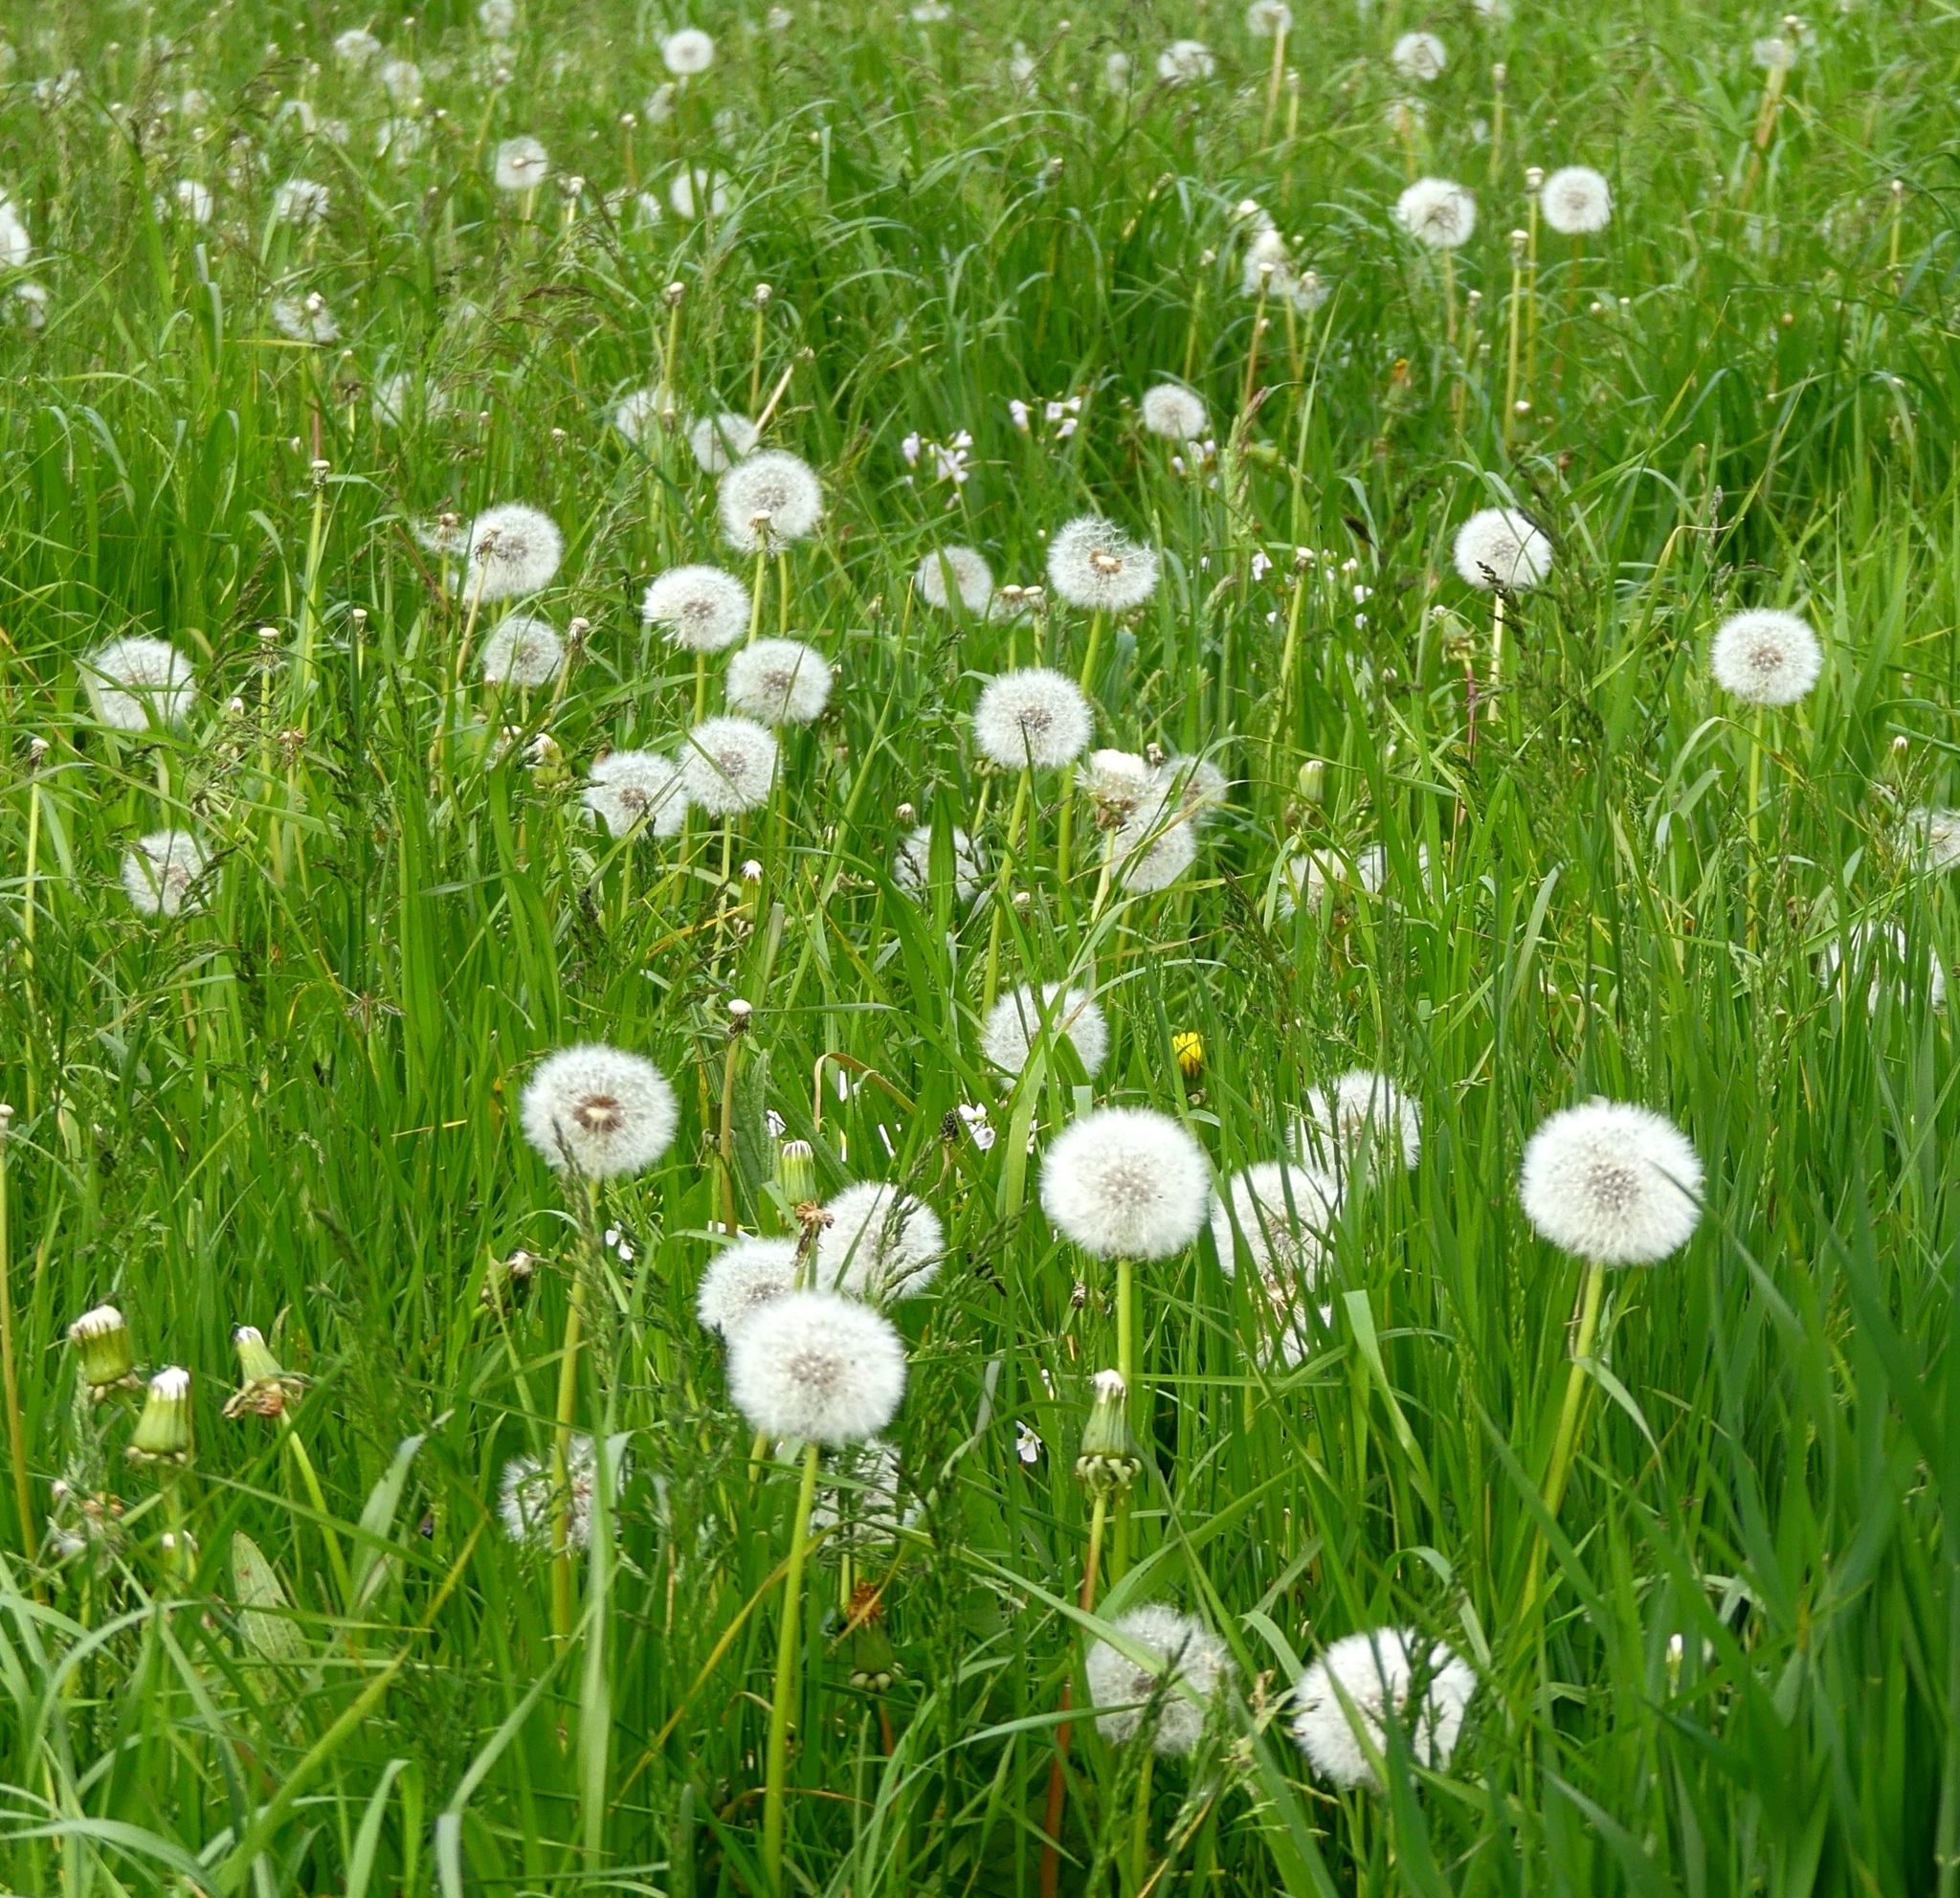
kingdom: Plantae
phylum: Tracheophyta
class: Magnoliopsida
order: Asterales
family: Asteraceae
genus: Taraxacum
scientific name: Taraxacum officinale
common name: Common dandelion
